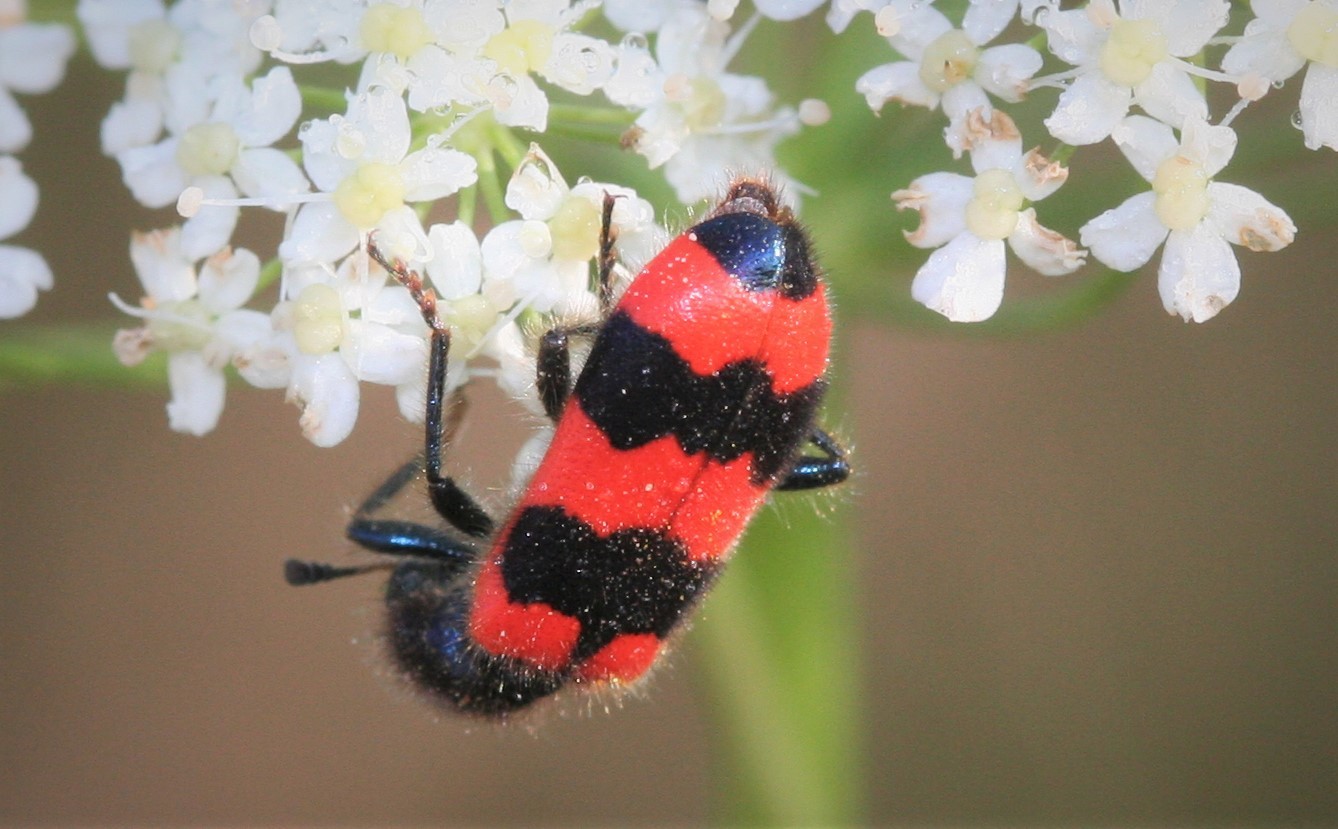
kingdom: Animalia
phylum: Arthropoda
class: Insecta
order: Coleoptera
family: Cleridae
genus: Trichodes
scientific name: Trichodes apiarius
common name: Bee-eating beetle
